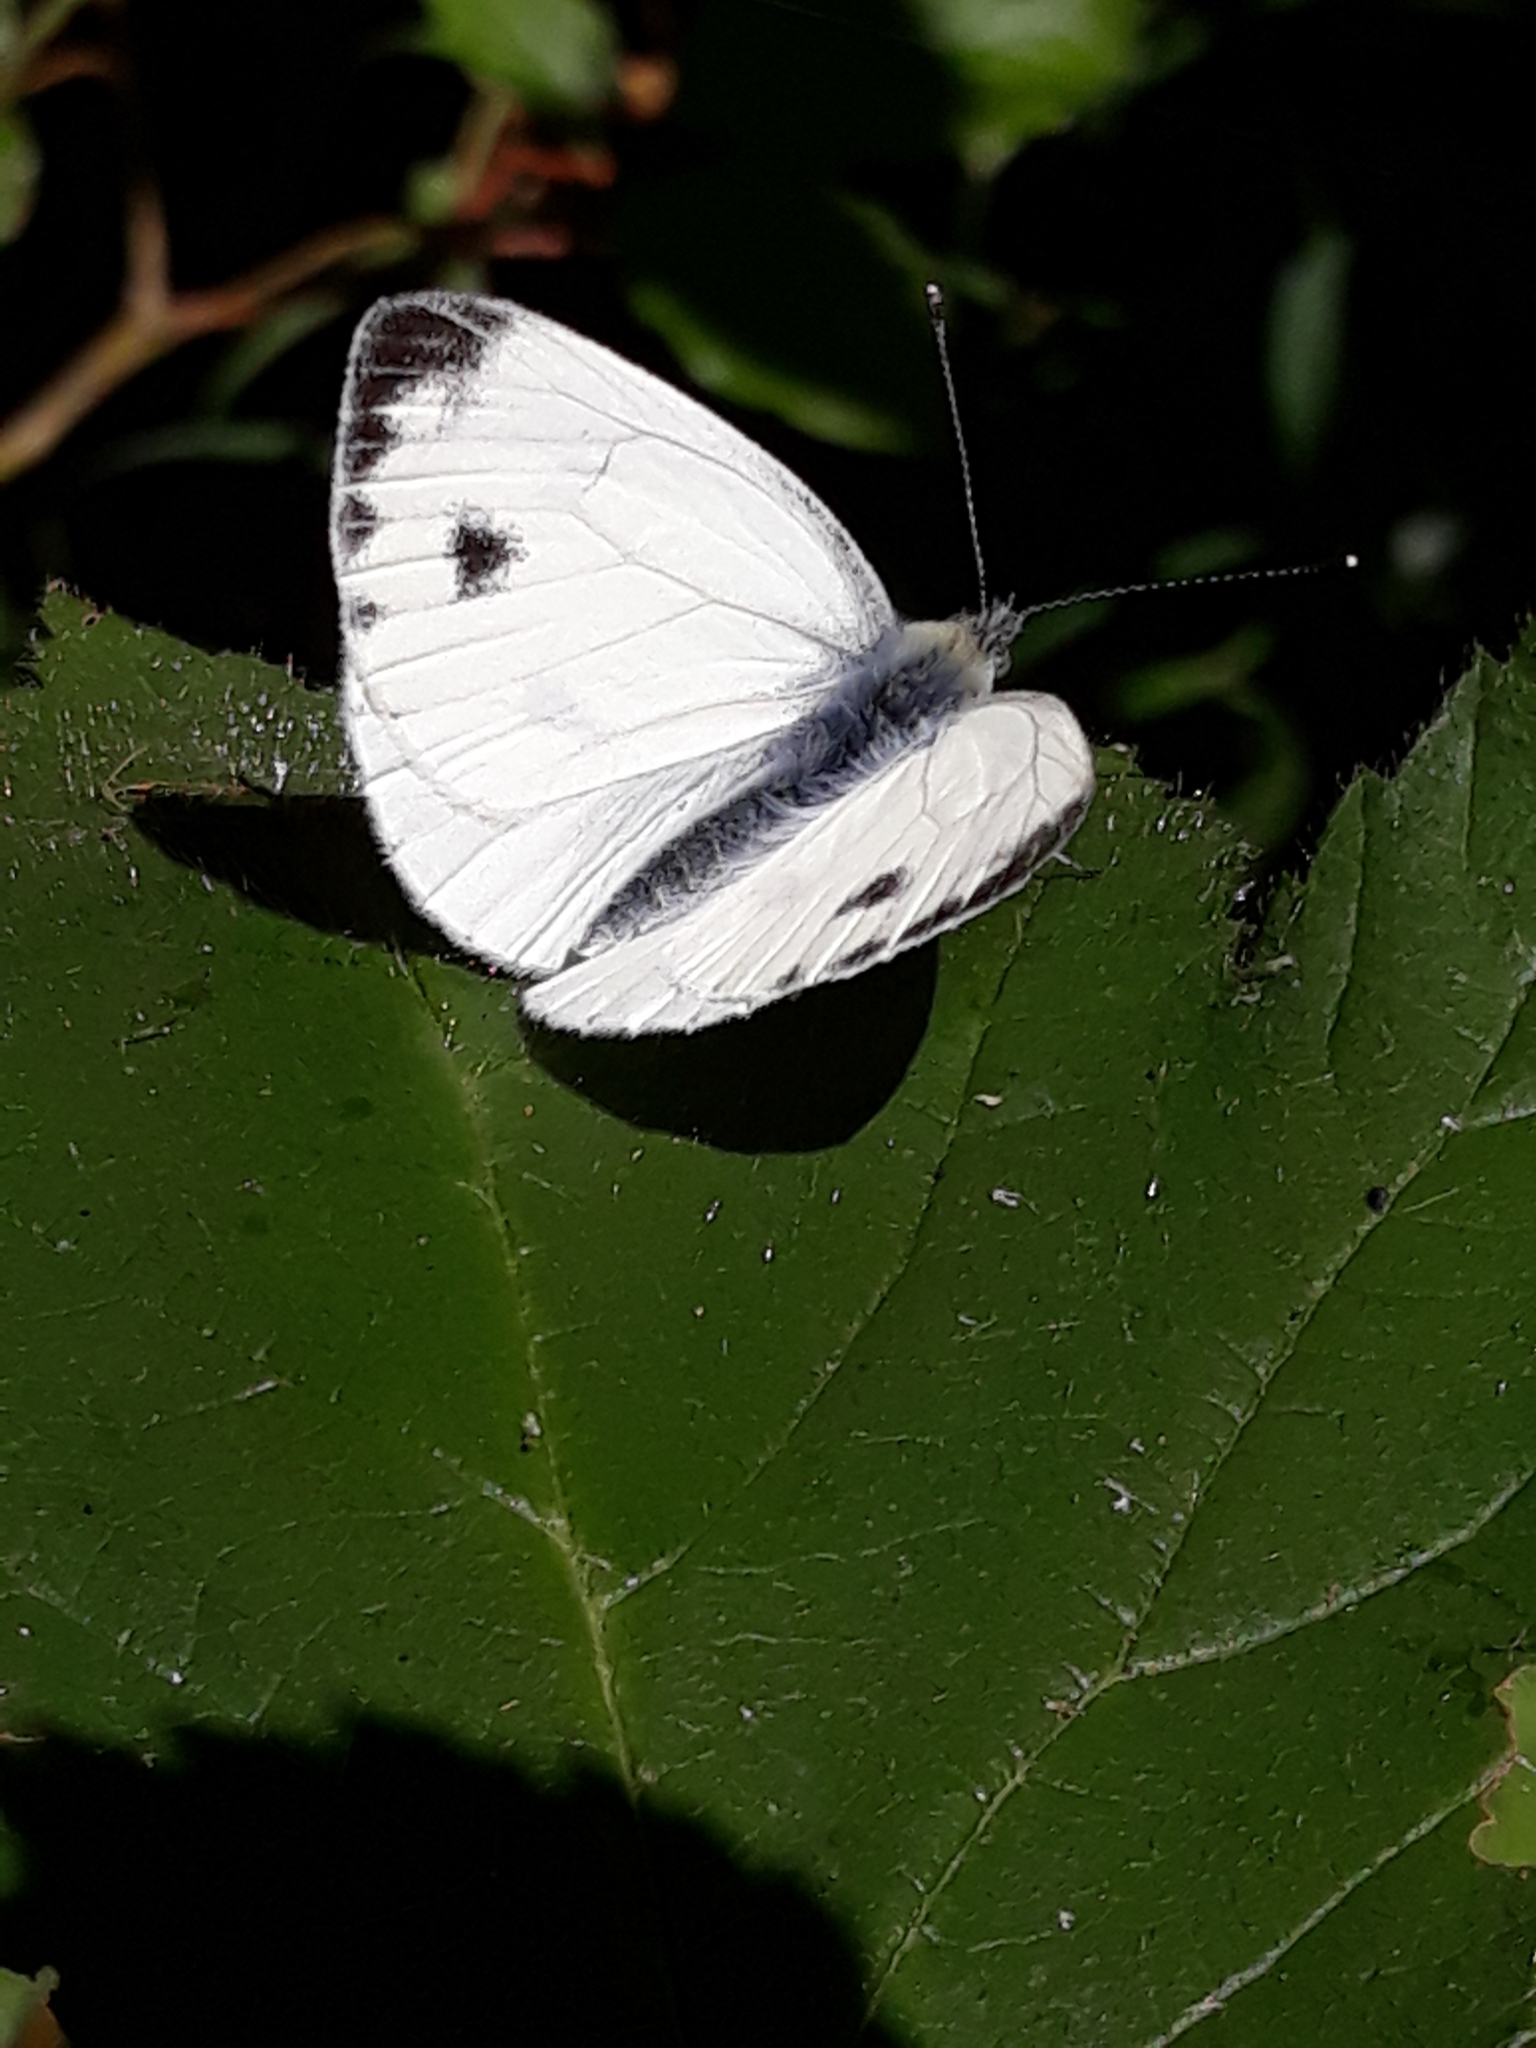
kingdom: Animalia
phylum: Arthropoda
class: Insecta
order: Lepidoptera
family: Pieridae
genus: Pieris
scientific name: Pieris napi
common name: Green-veined white
